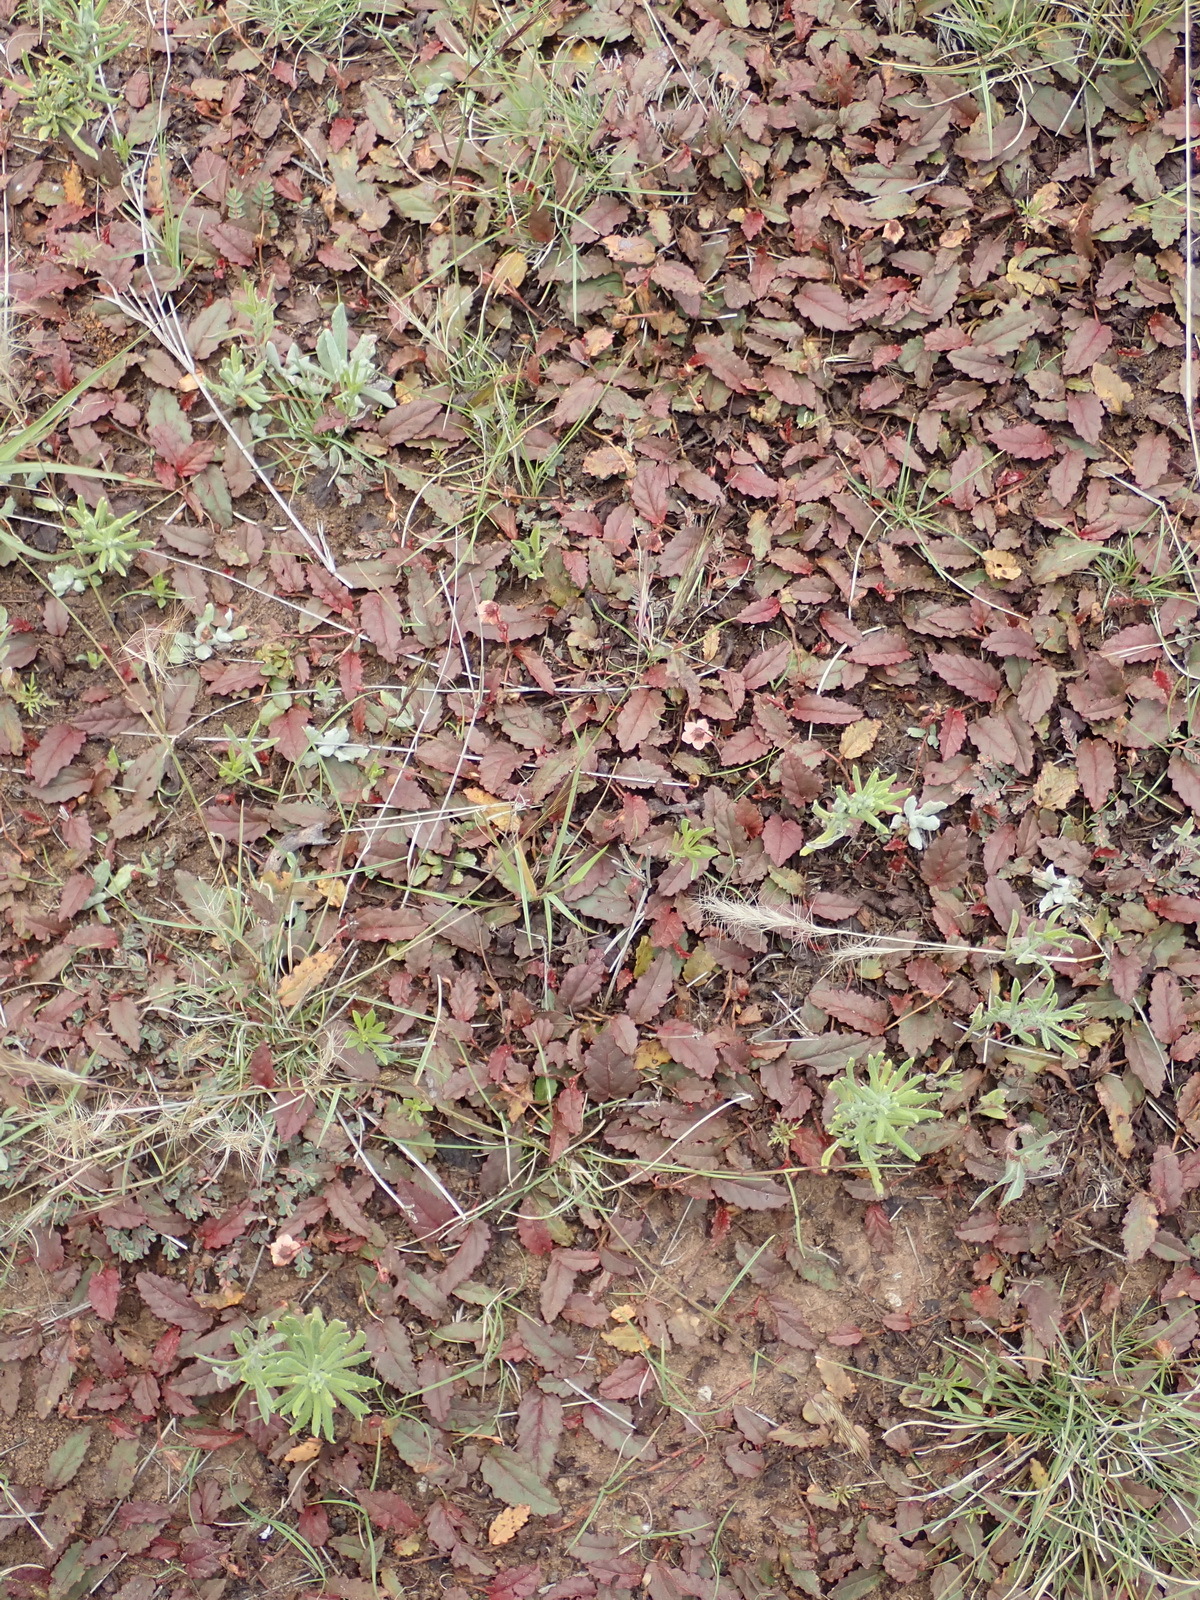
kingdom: Plantae
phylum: Tracheophyta
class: Magnoliopsida
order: Malvales
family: Malvaceae
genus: Hermannia
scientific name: Hermannia depressa
